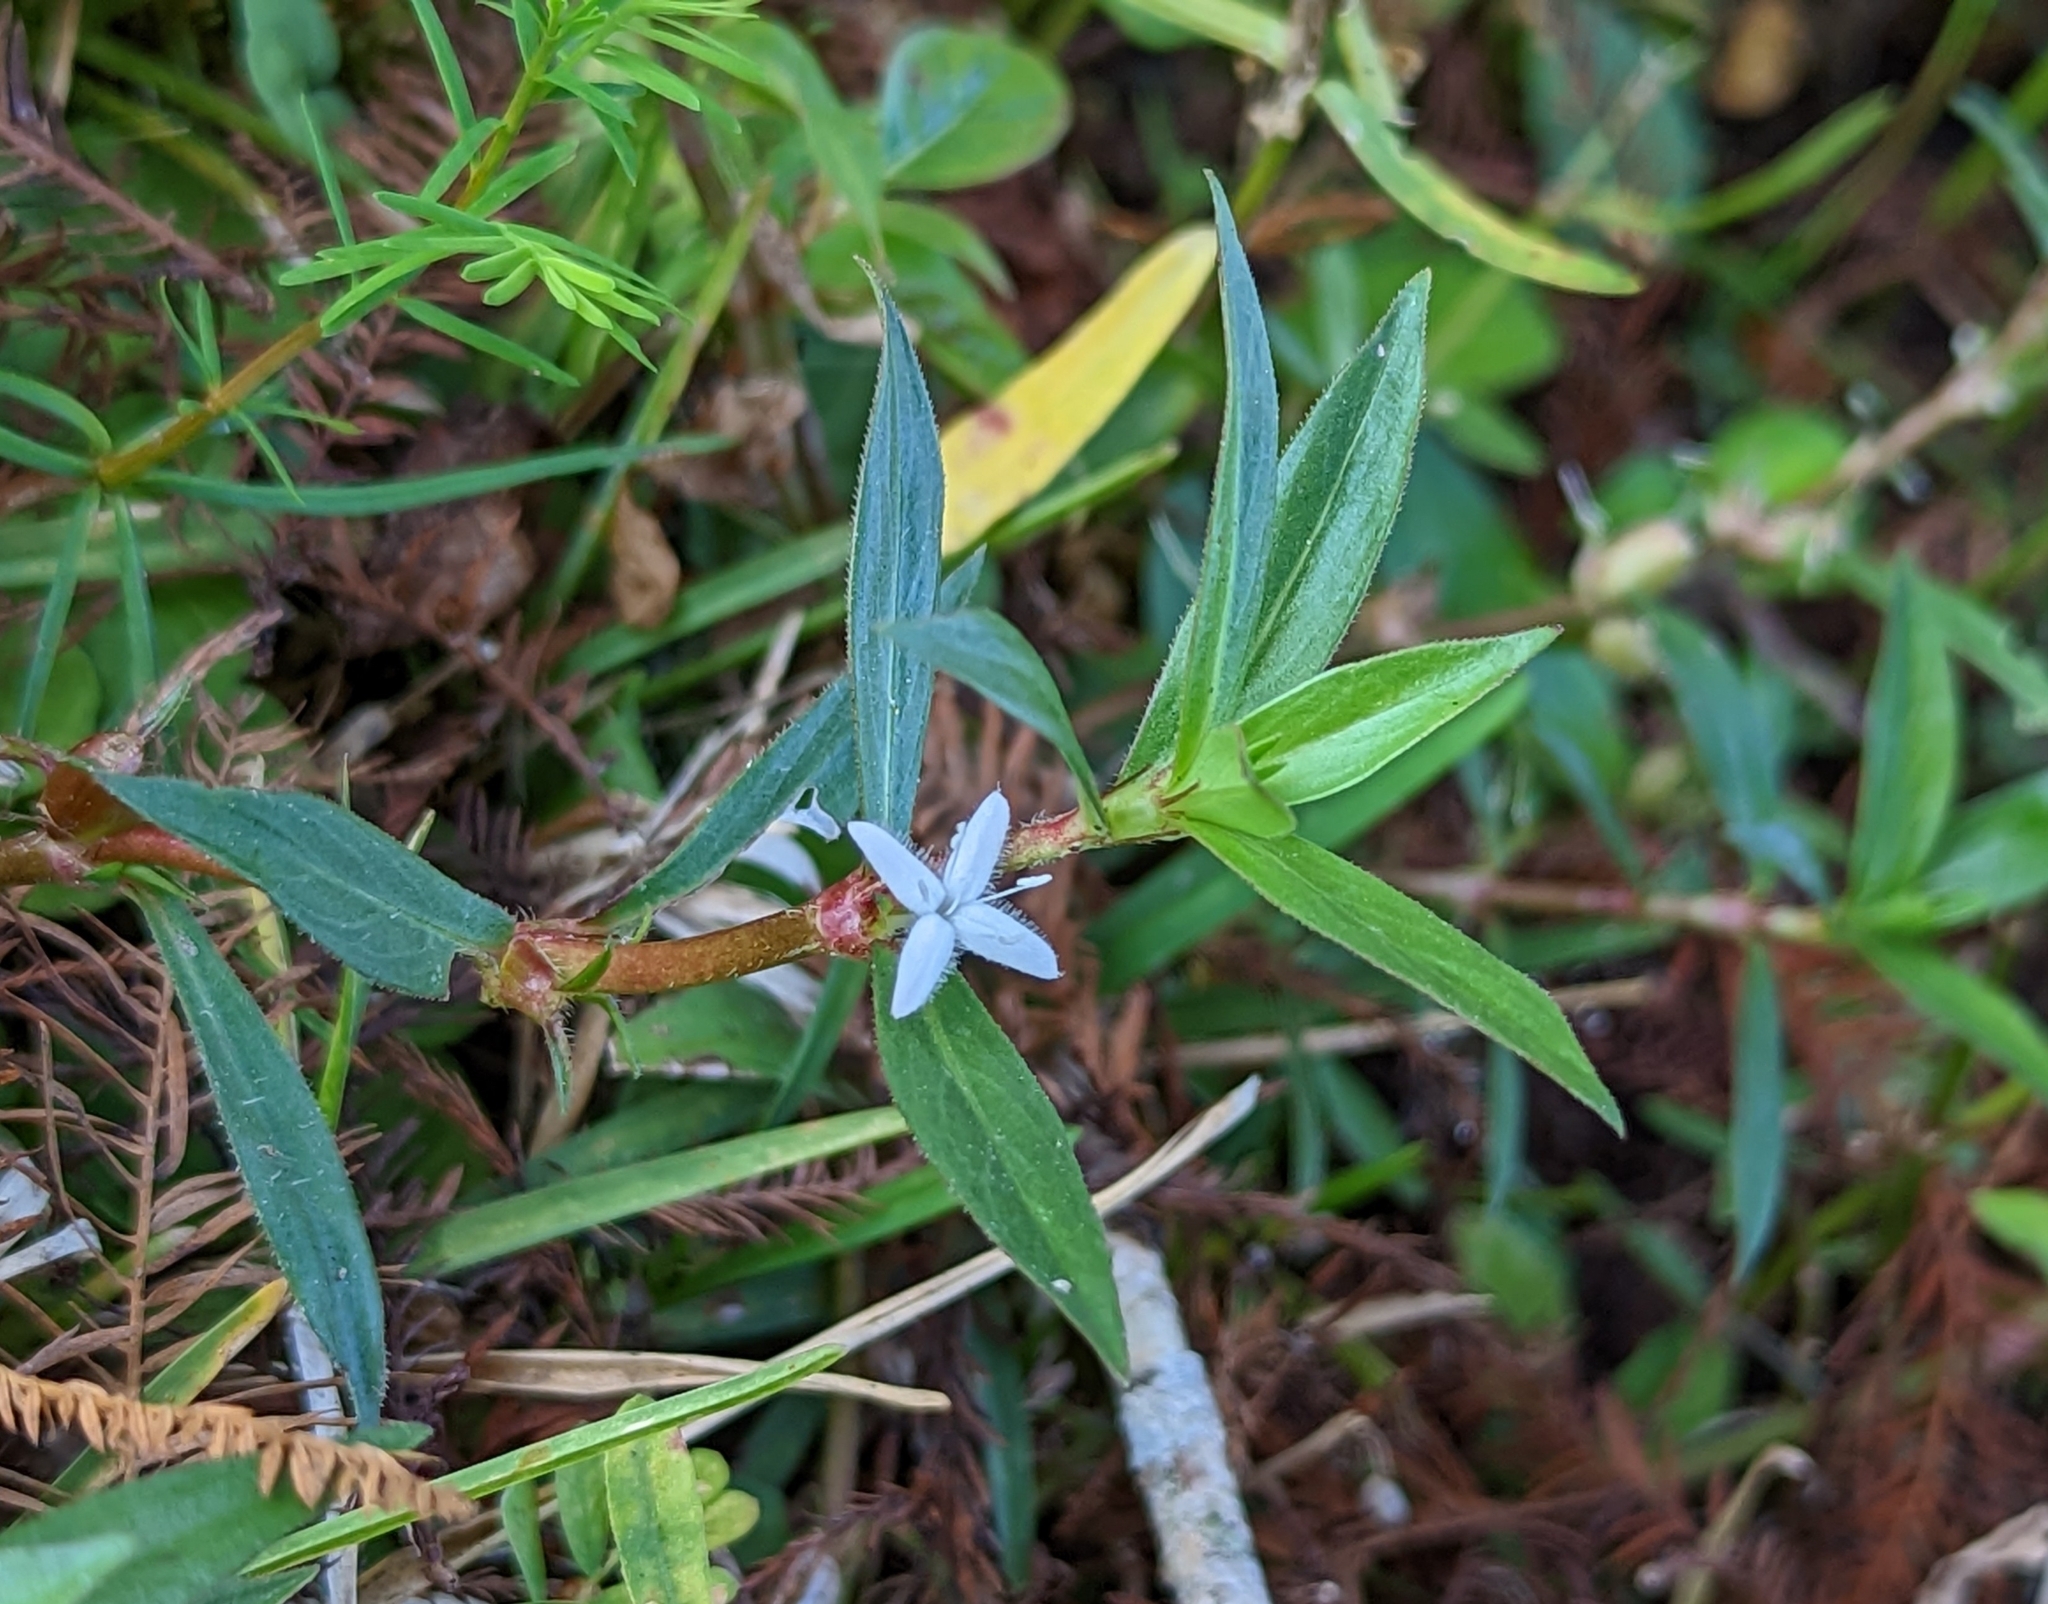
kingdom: Plantae
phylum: Tracheophyta
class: Magnoliopsida
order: Gentianales
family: Rubiaceae
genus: Diodia
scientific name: Diodia virginiana
